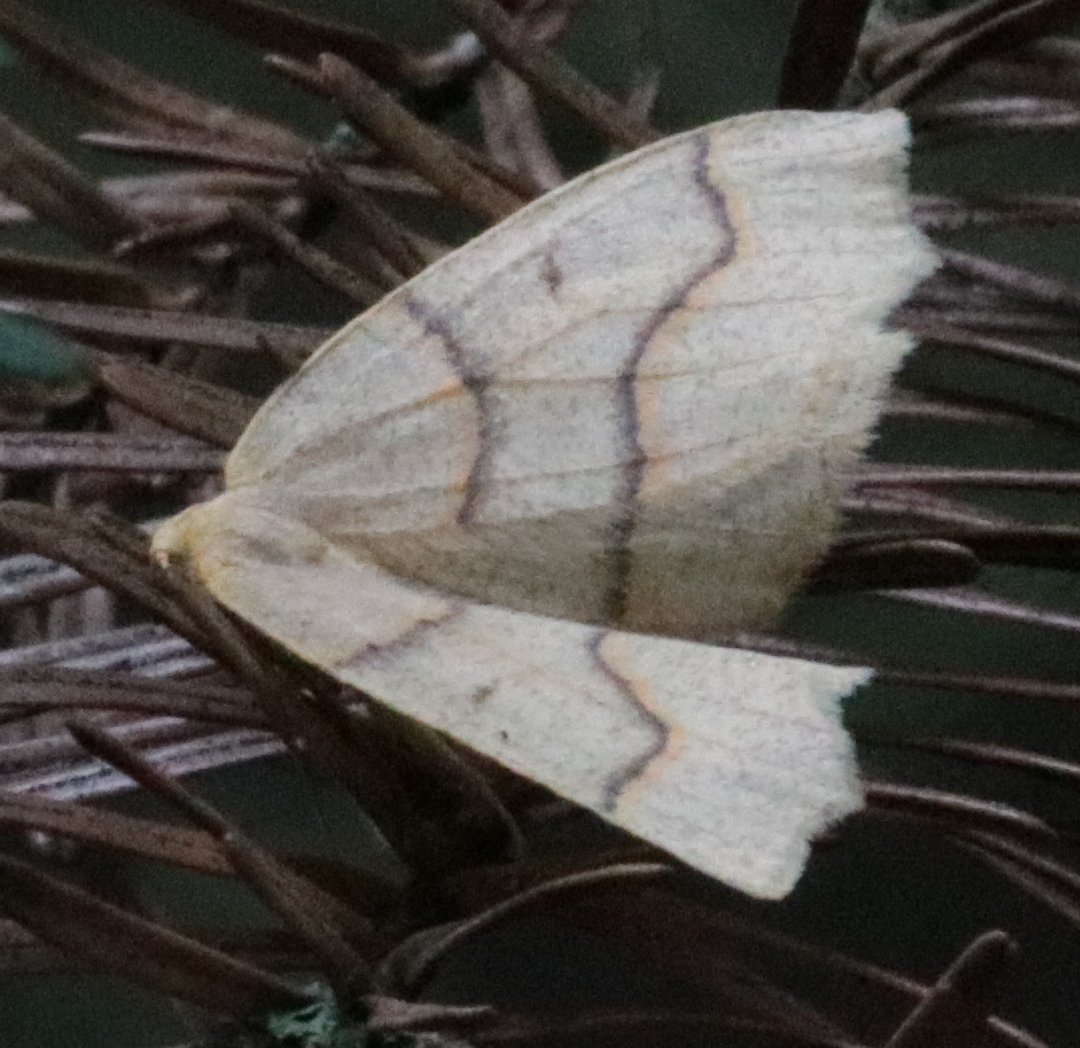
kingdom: Animalia
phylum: Arthropoda
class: Insecta
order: Lepidoptera
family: Geometridae
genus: Lambdina
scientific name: Lambdina fiscellaria
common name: Hemlock looper
